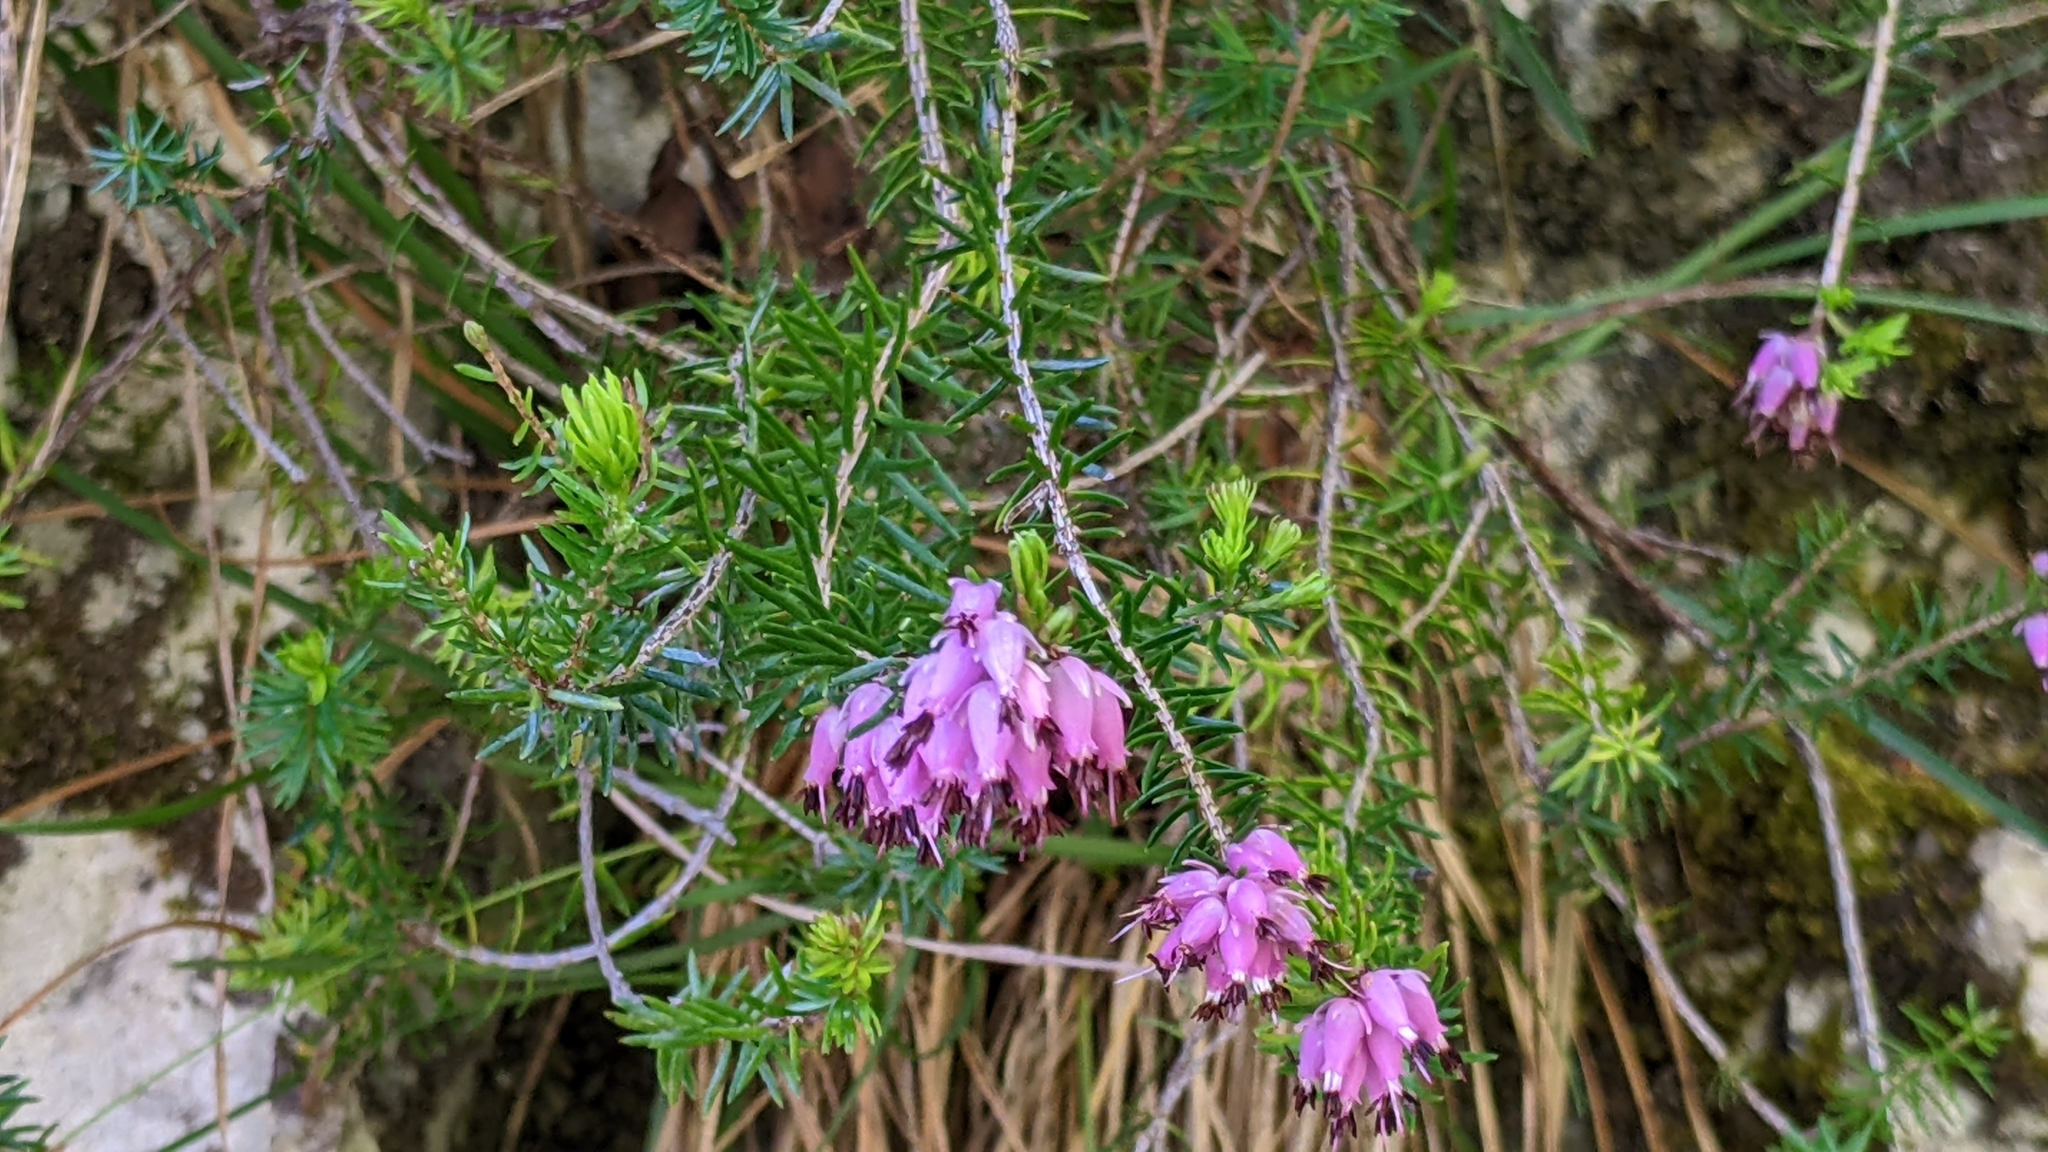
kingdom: Plantae
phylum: Tracheophyta
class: Magnoliopsida
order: Ericales
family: Ericaceae
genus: Erica
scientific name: Erica carnea
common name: Winter heath
